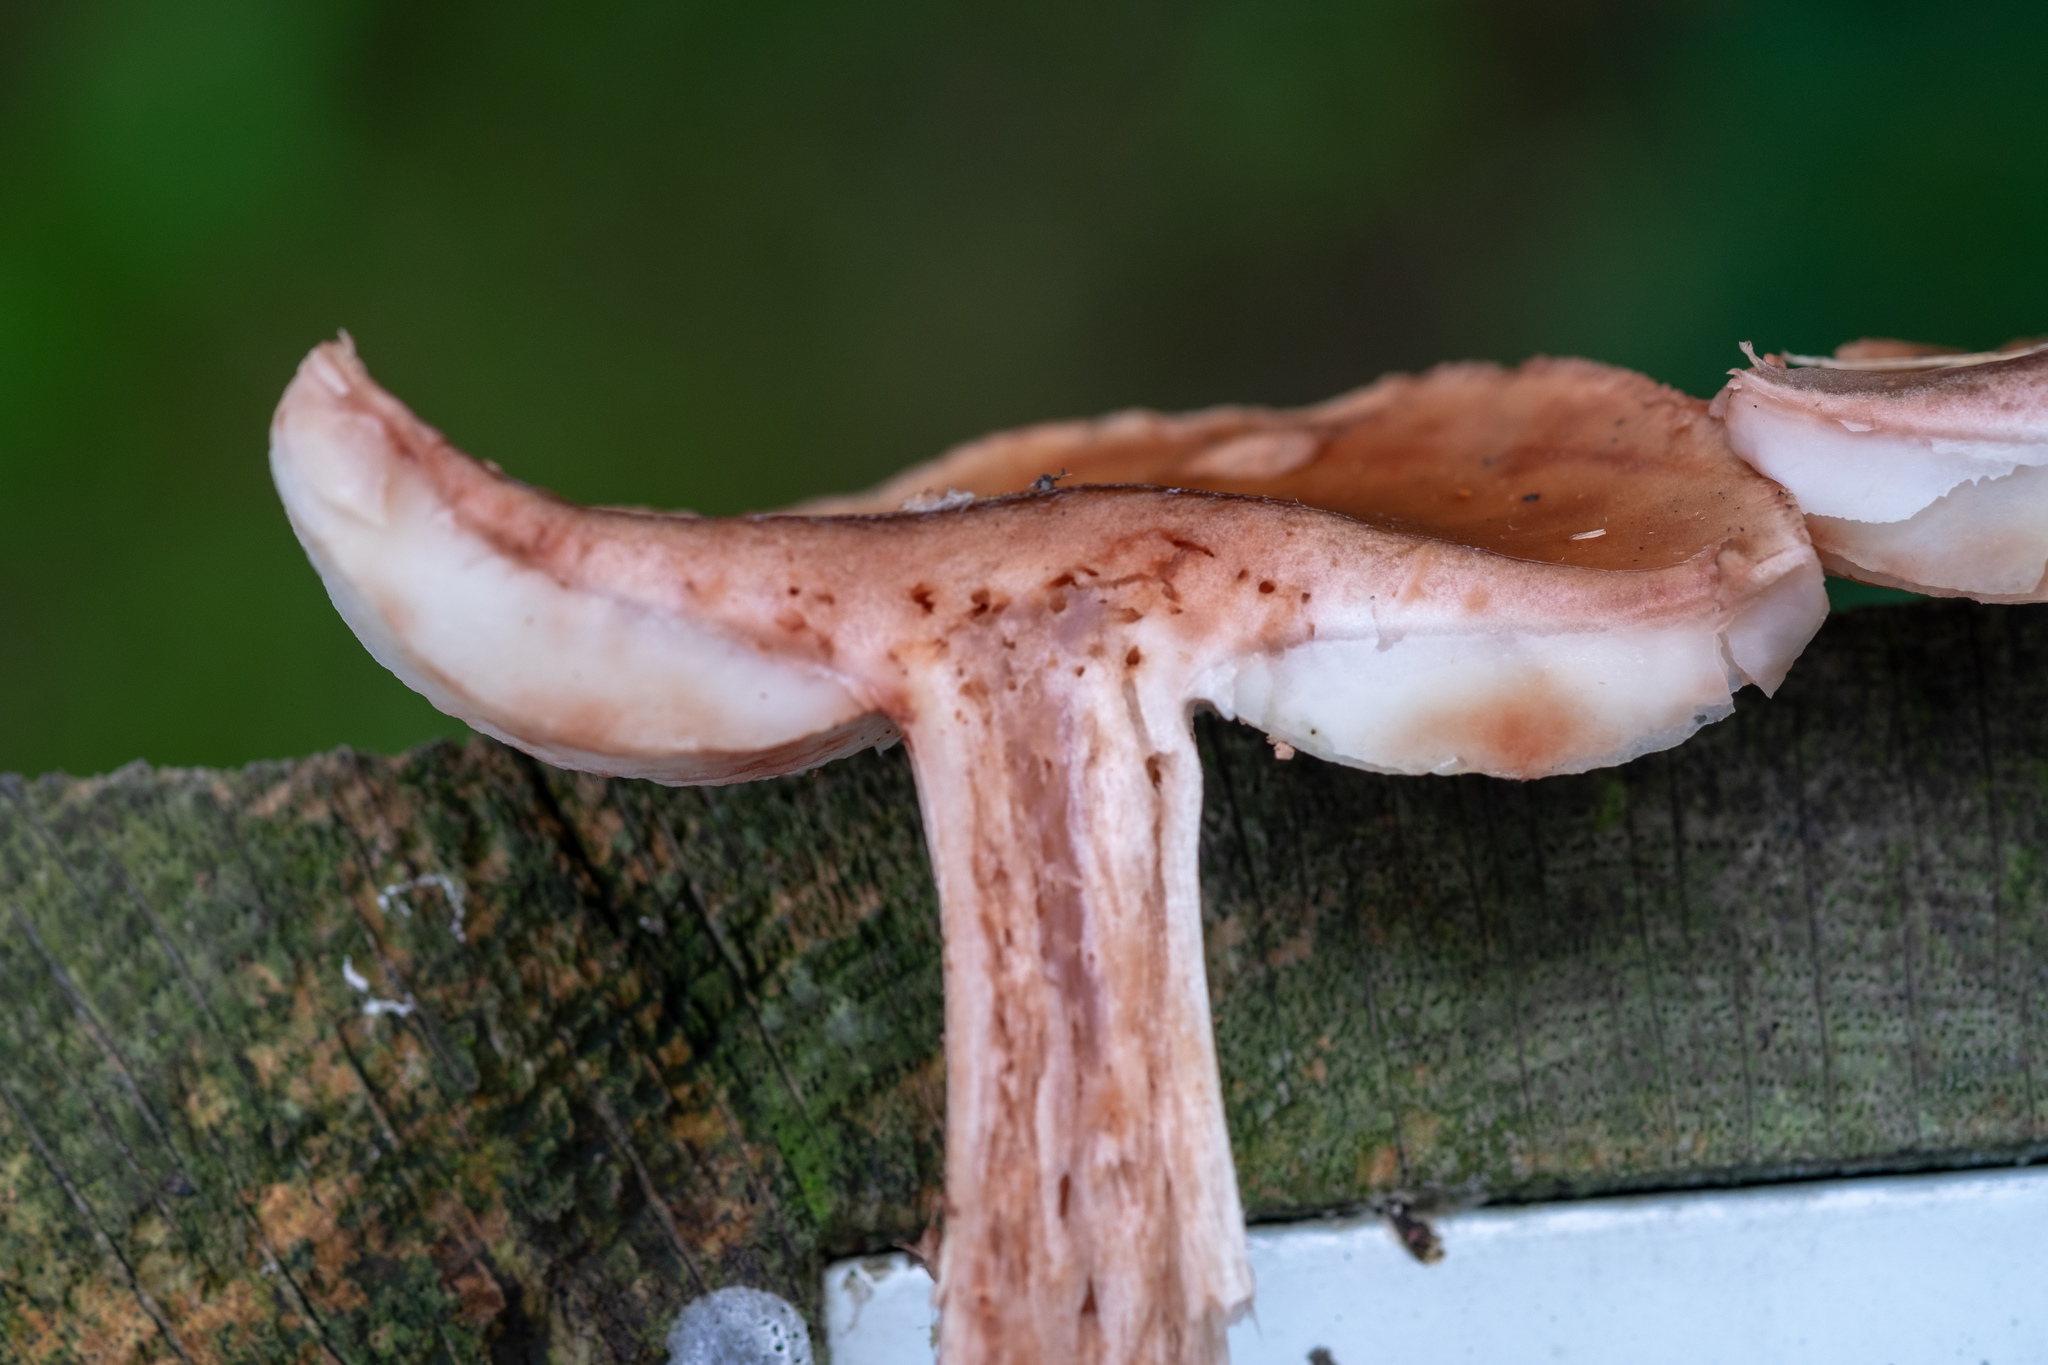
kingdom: Fungi
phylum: Basidiomycota
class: Agaricomycetes
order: Agaricales
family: Amanitaceae
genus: Amanita
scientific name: Amanita rubescens
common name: Blusher
